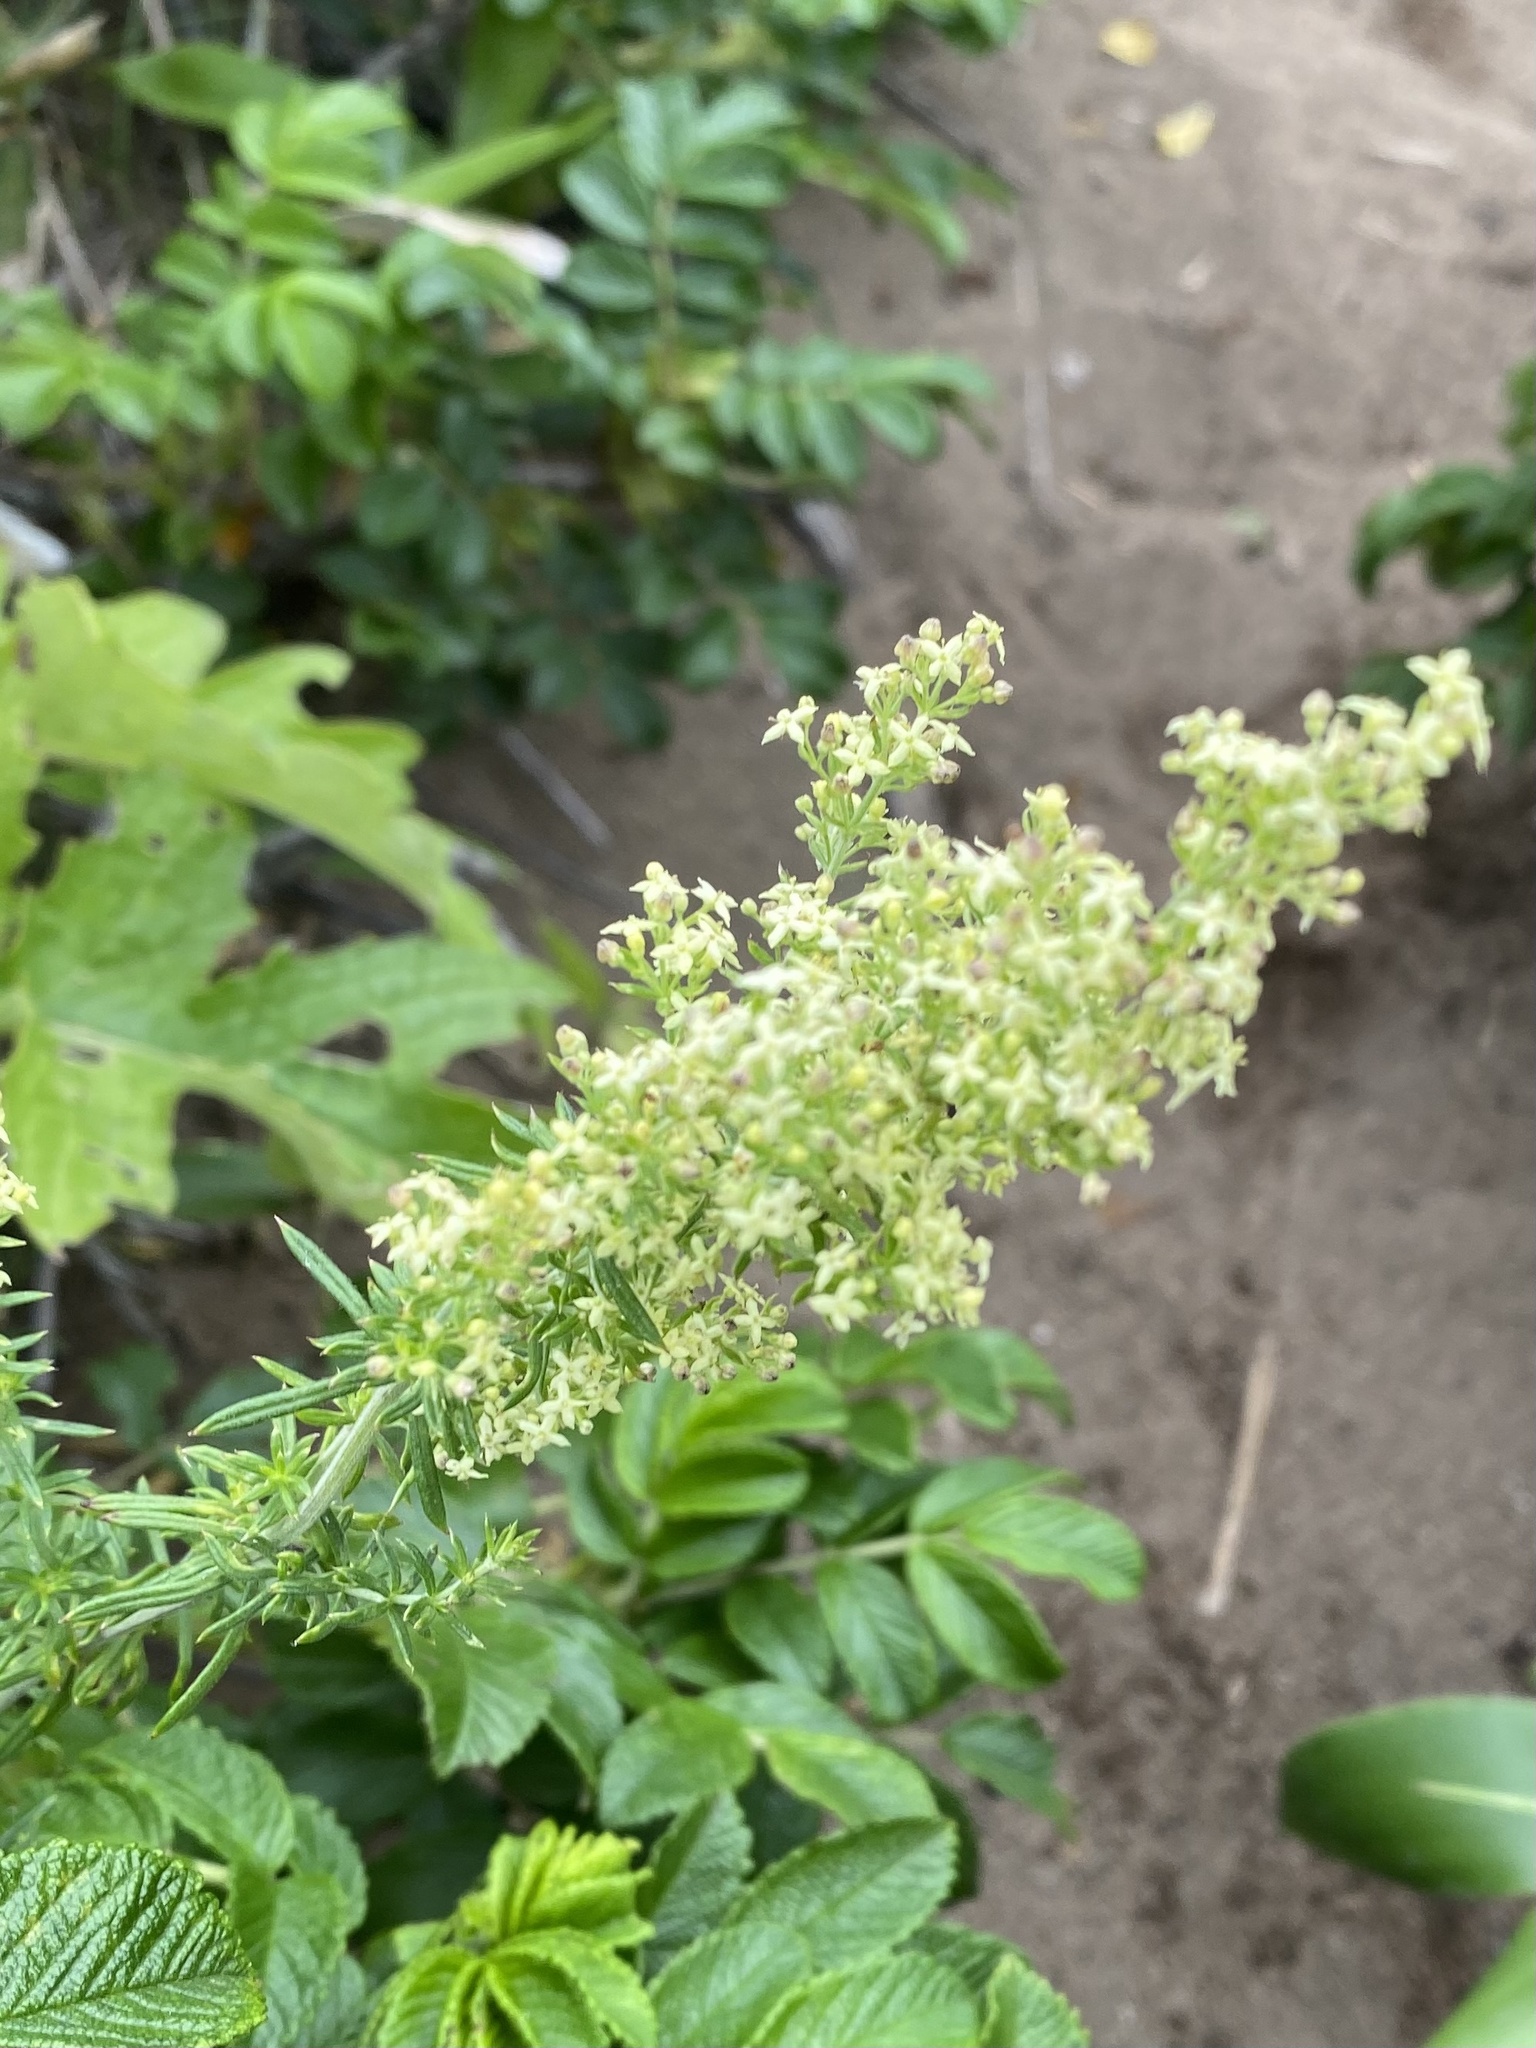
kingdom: Plantae
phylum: Tracheophyta
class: Magnoliopsida
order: Gentianales
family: Rubiaceae
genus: Galium
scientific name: Galium verum
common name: Lady's bedstraw
